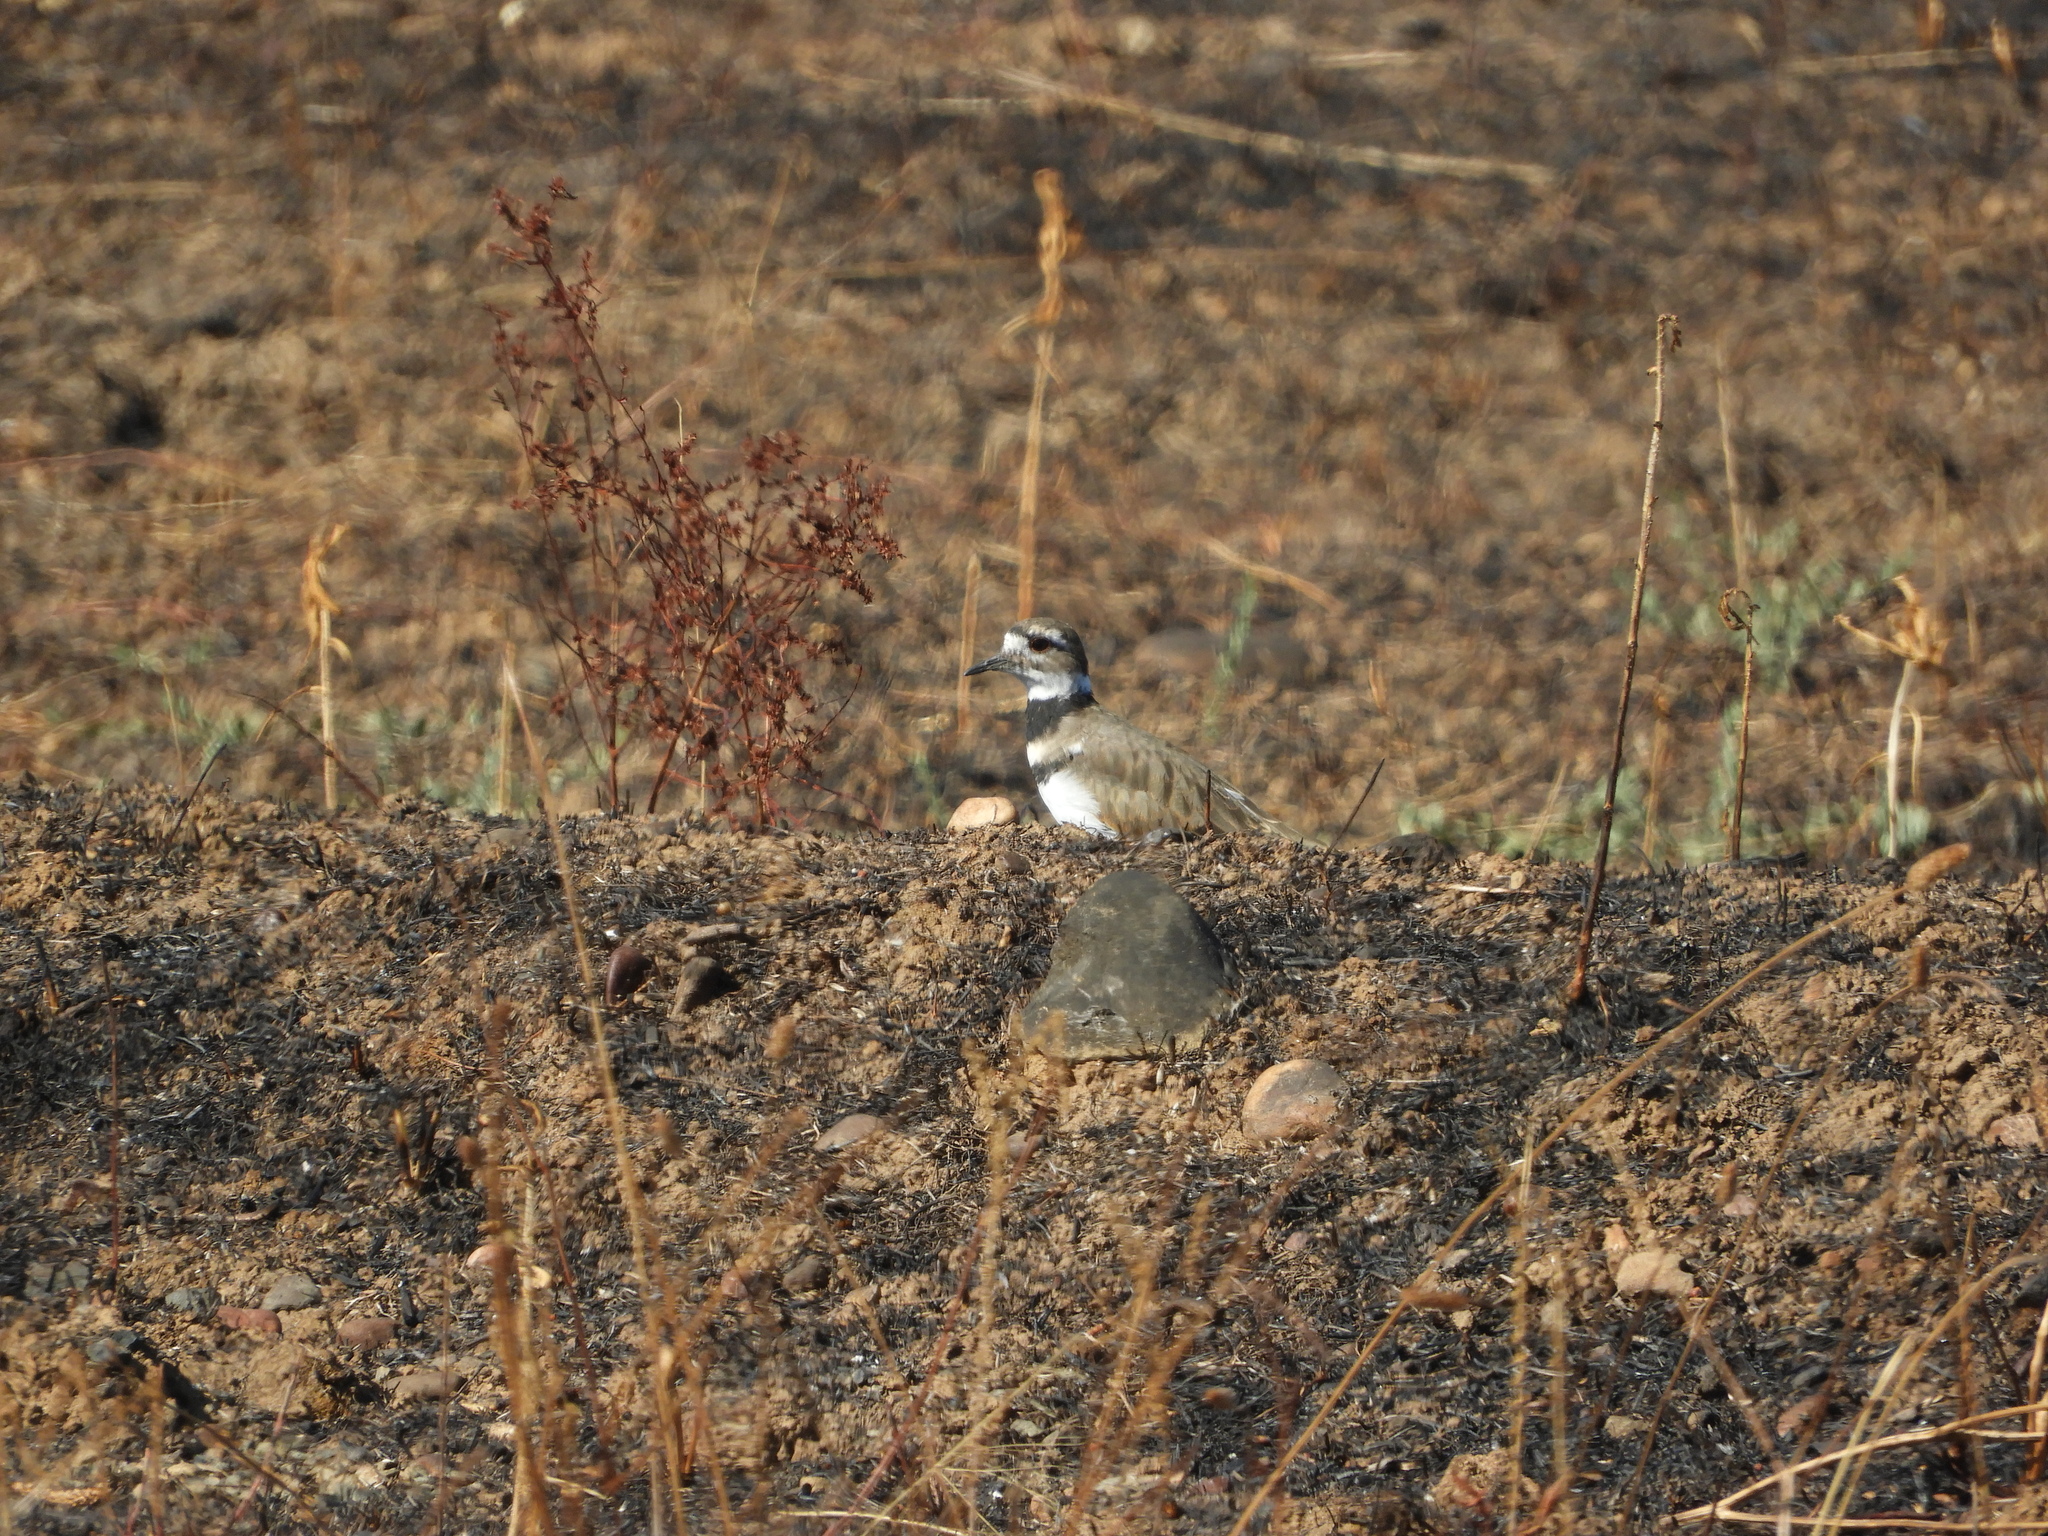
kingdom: Animalia
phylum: Chordata
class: Aves
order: Charadriiformes
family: Charadriidae
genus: Charadrius
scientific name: Charadrius vociferus
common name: Killdeer
